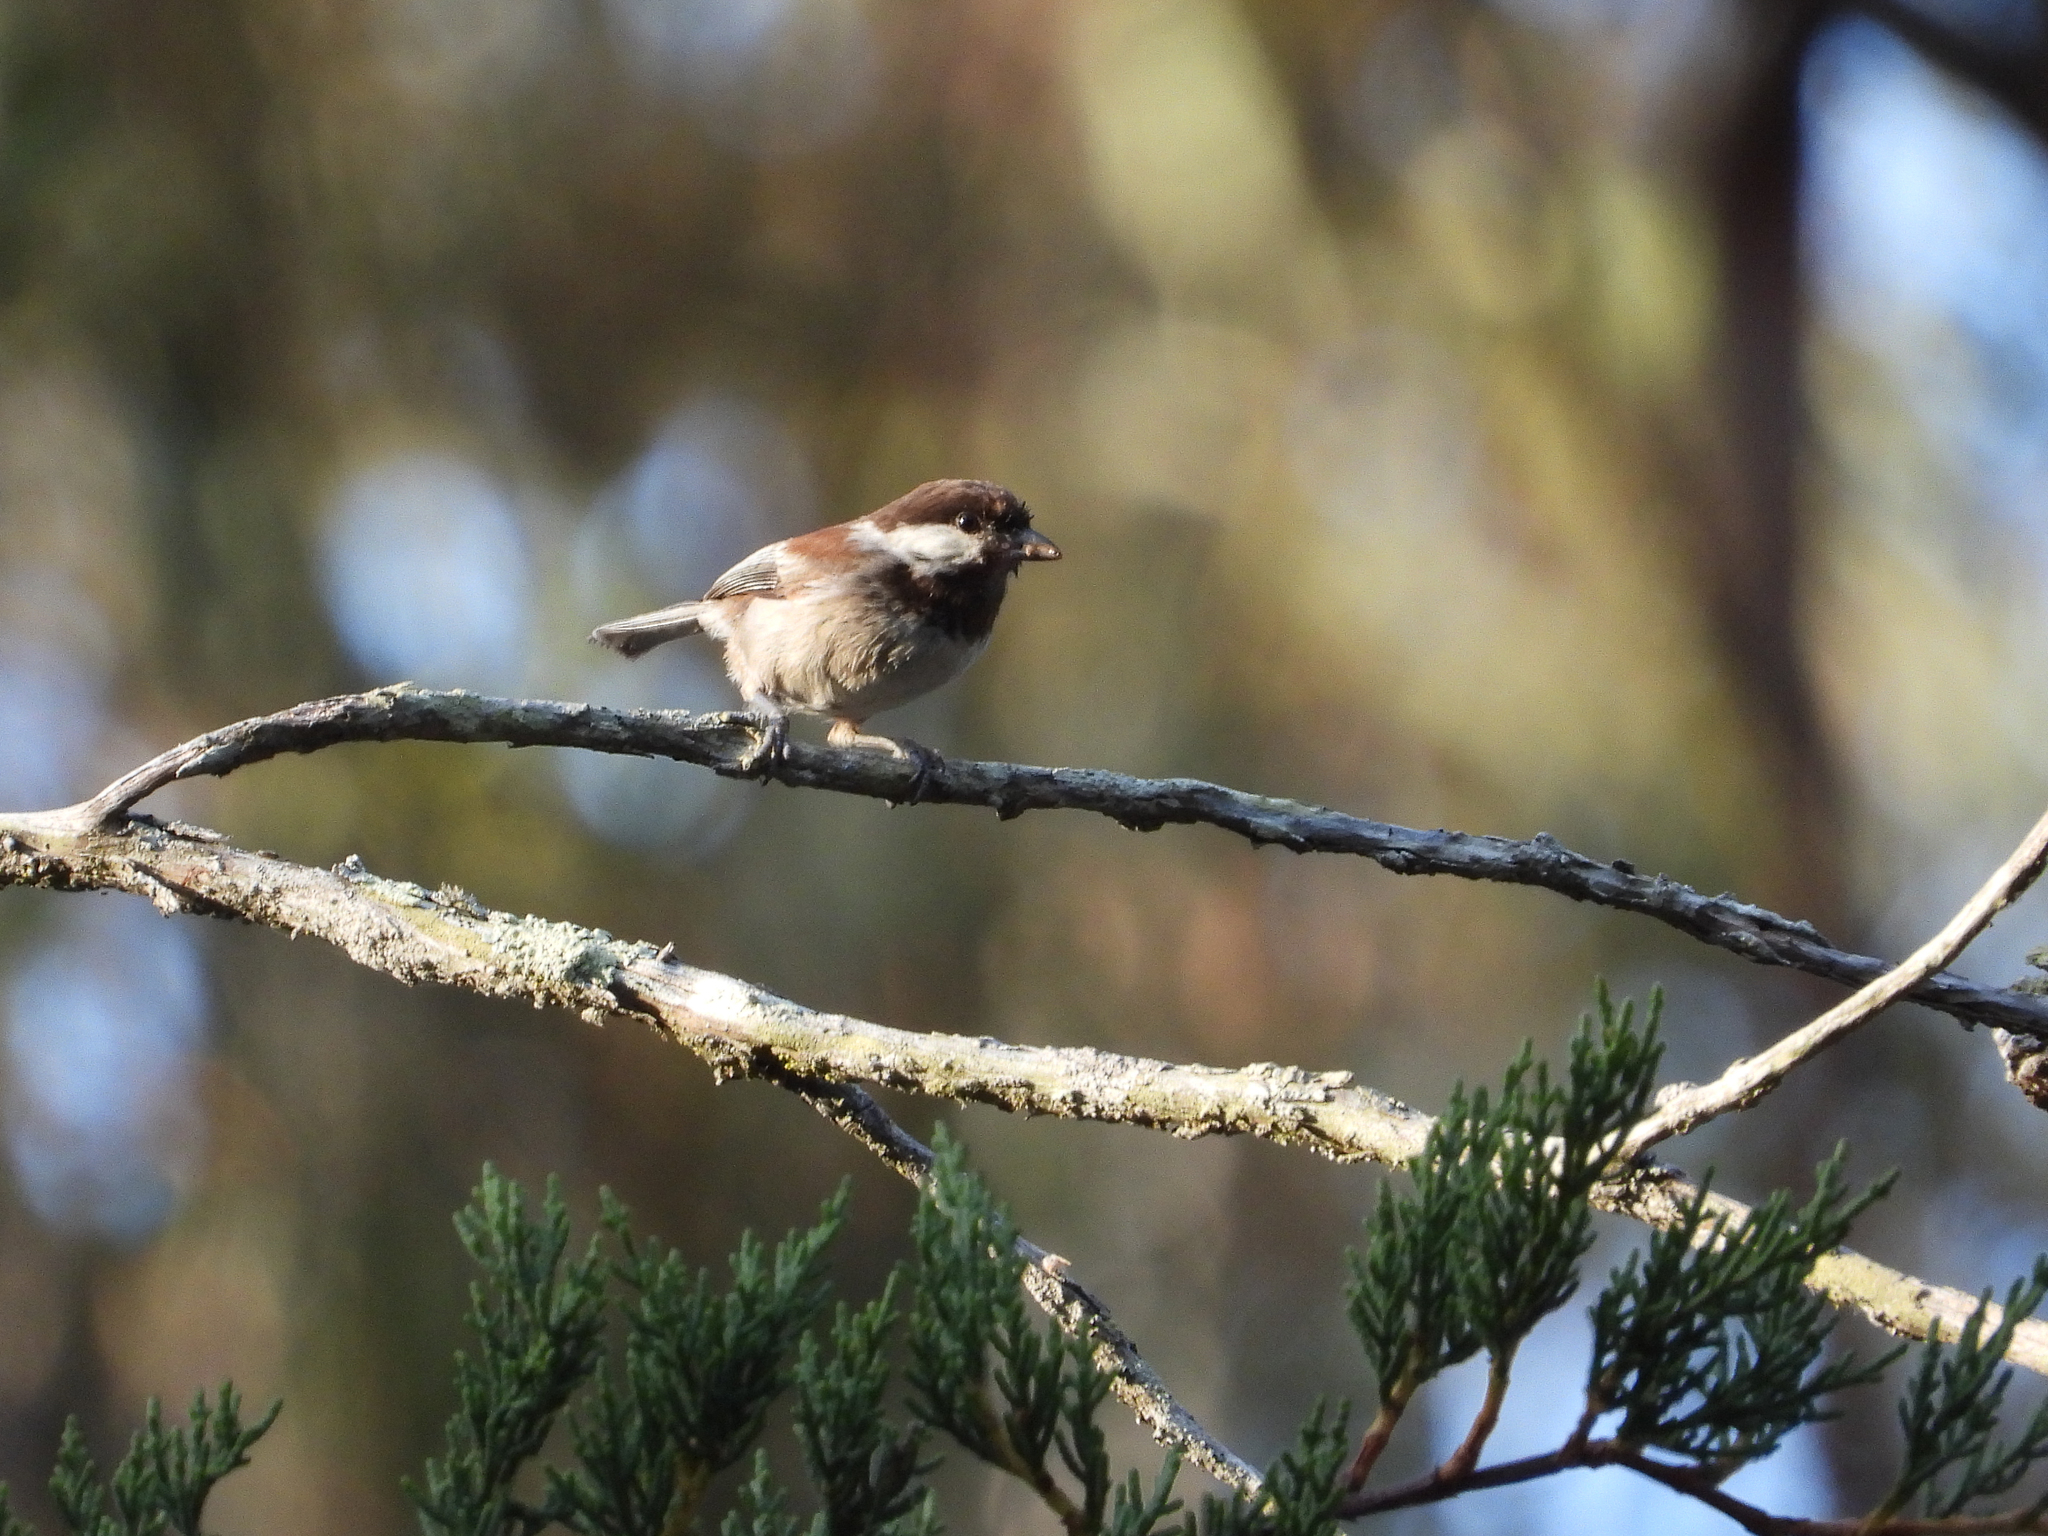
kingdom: Animalia
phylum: Chordata
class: Aves
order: Passeriformes
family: Paridae
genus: Poecile
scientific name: Poecile rufescens
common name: Chestnut-backed chickadee
